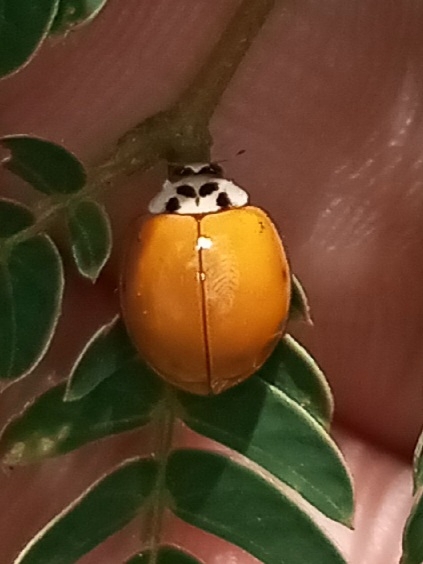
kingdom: Animalia
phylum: Arthropoda
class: Insecta
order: Coleoptera
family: Coccinellidae
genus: Harmonia
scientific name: Harmonia axyridis
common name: Harlequin ladybird
